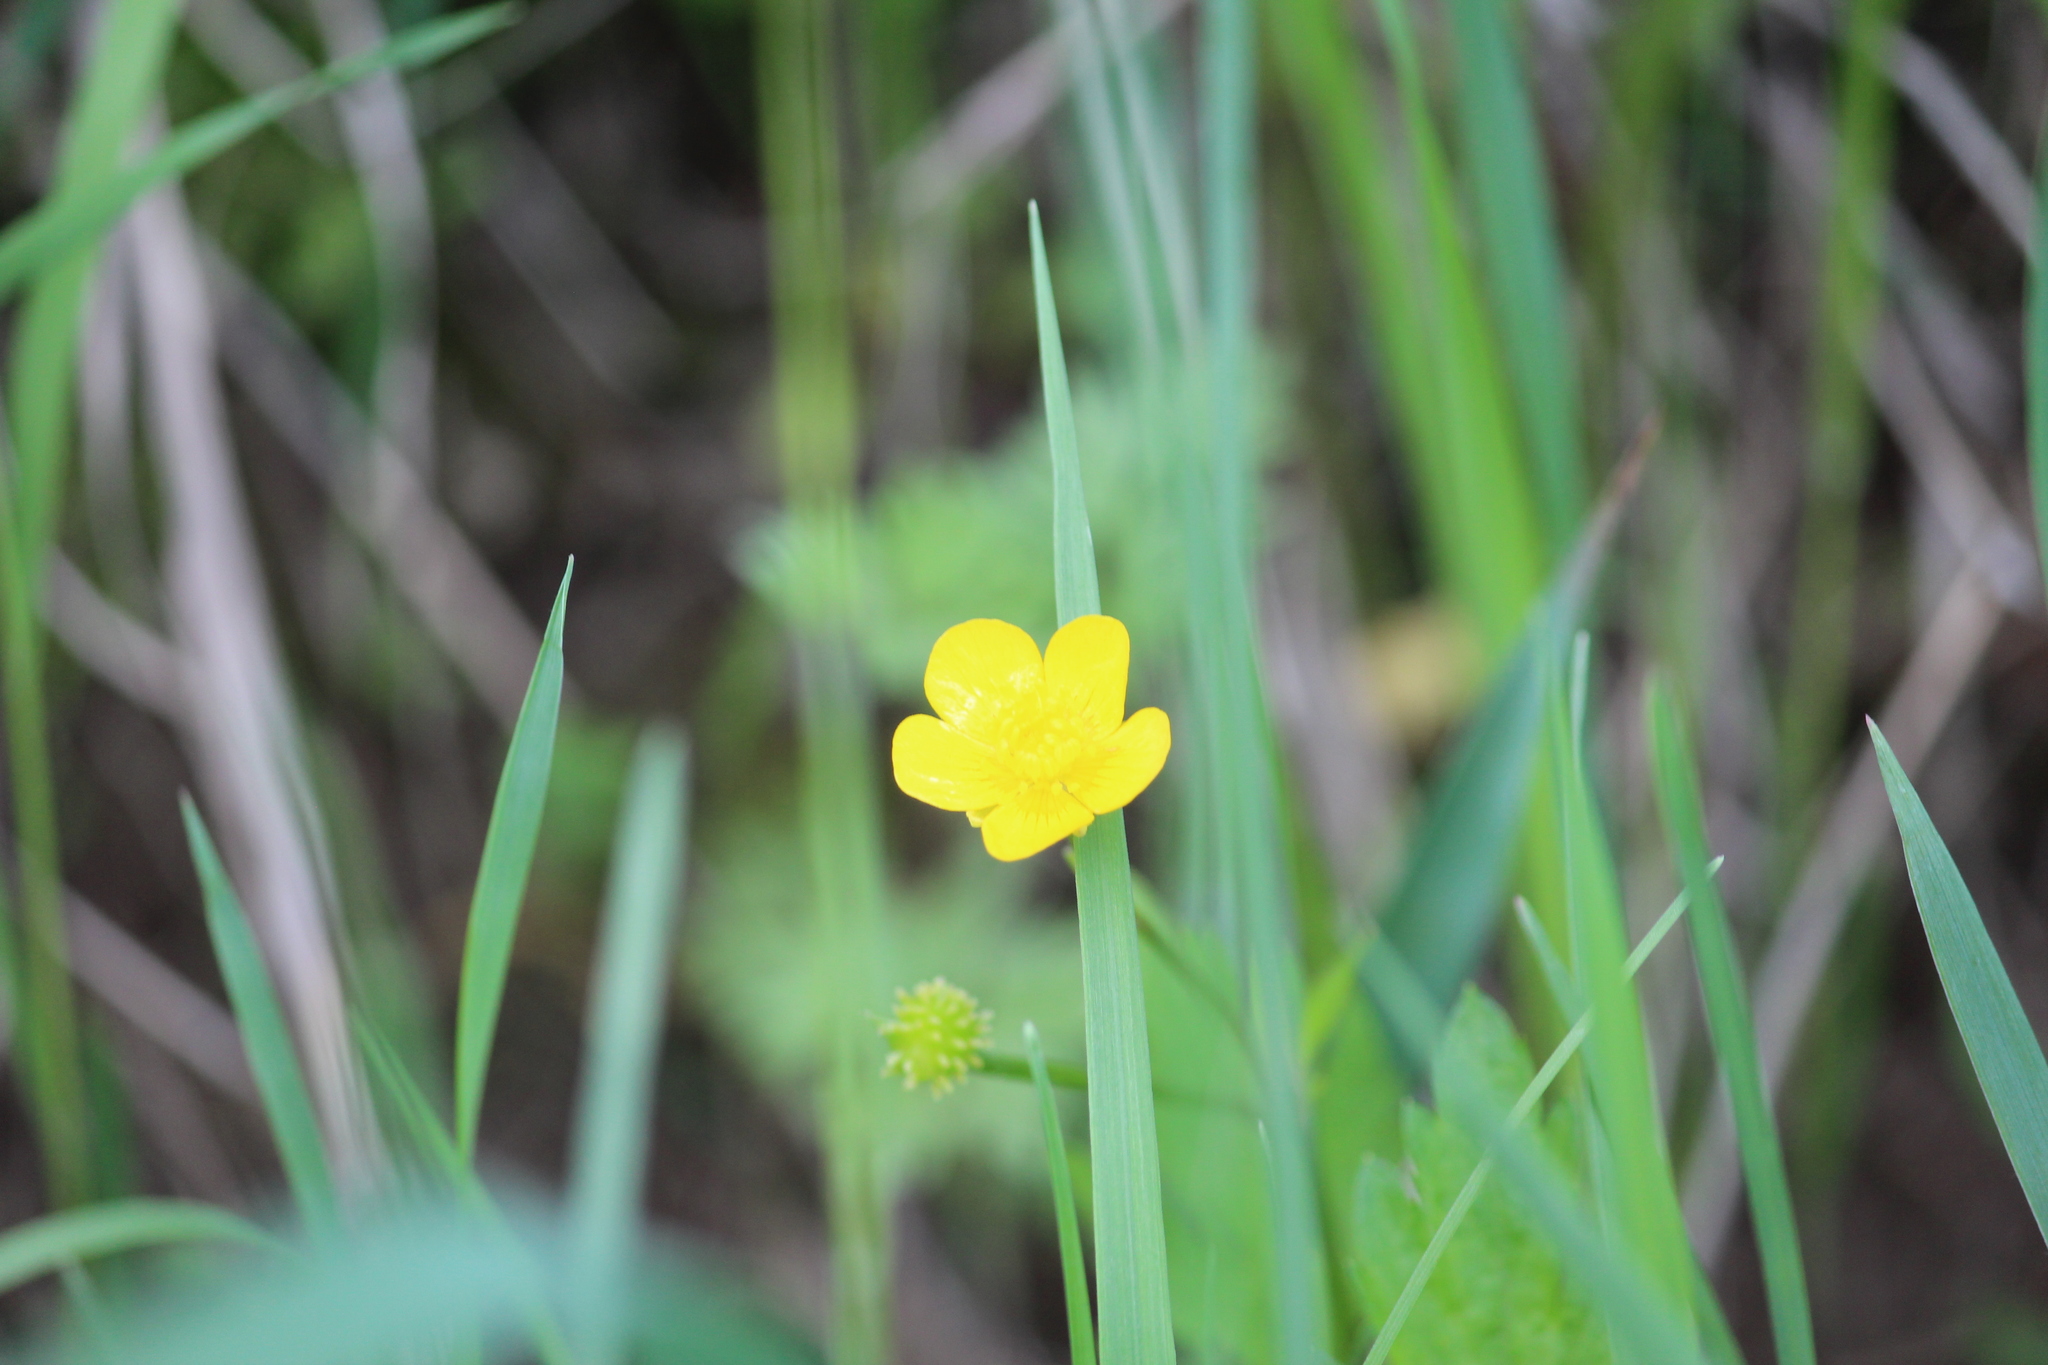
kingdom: Plantae
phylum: Tracheophyta
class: Magnoliopsida
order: Ranunculales
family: Ranunculaceae
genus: Ranunculus
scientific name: Ranunculus repens
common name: Creeping buttercup
